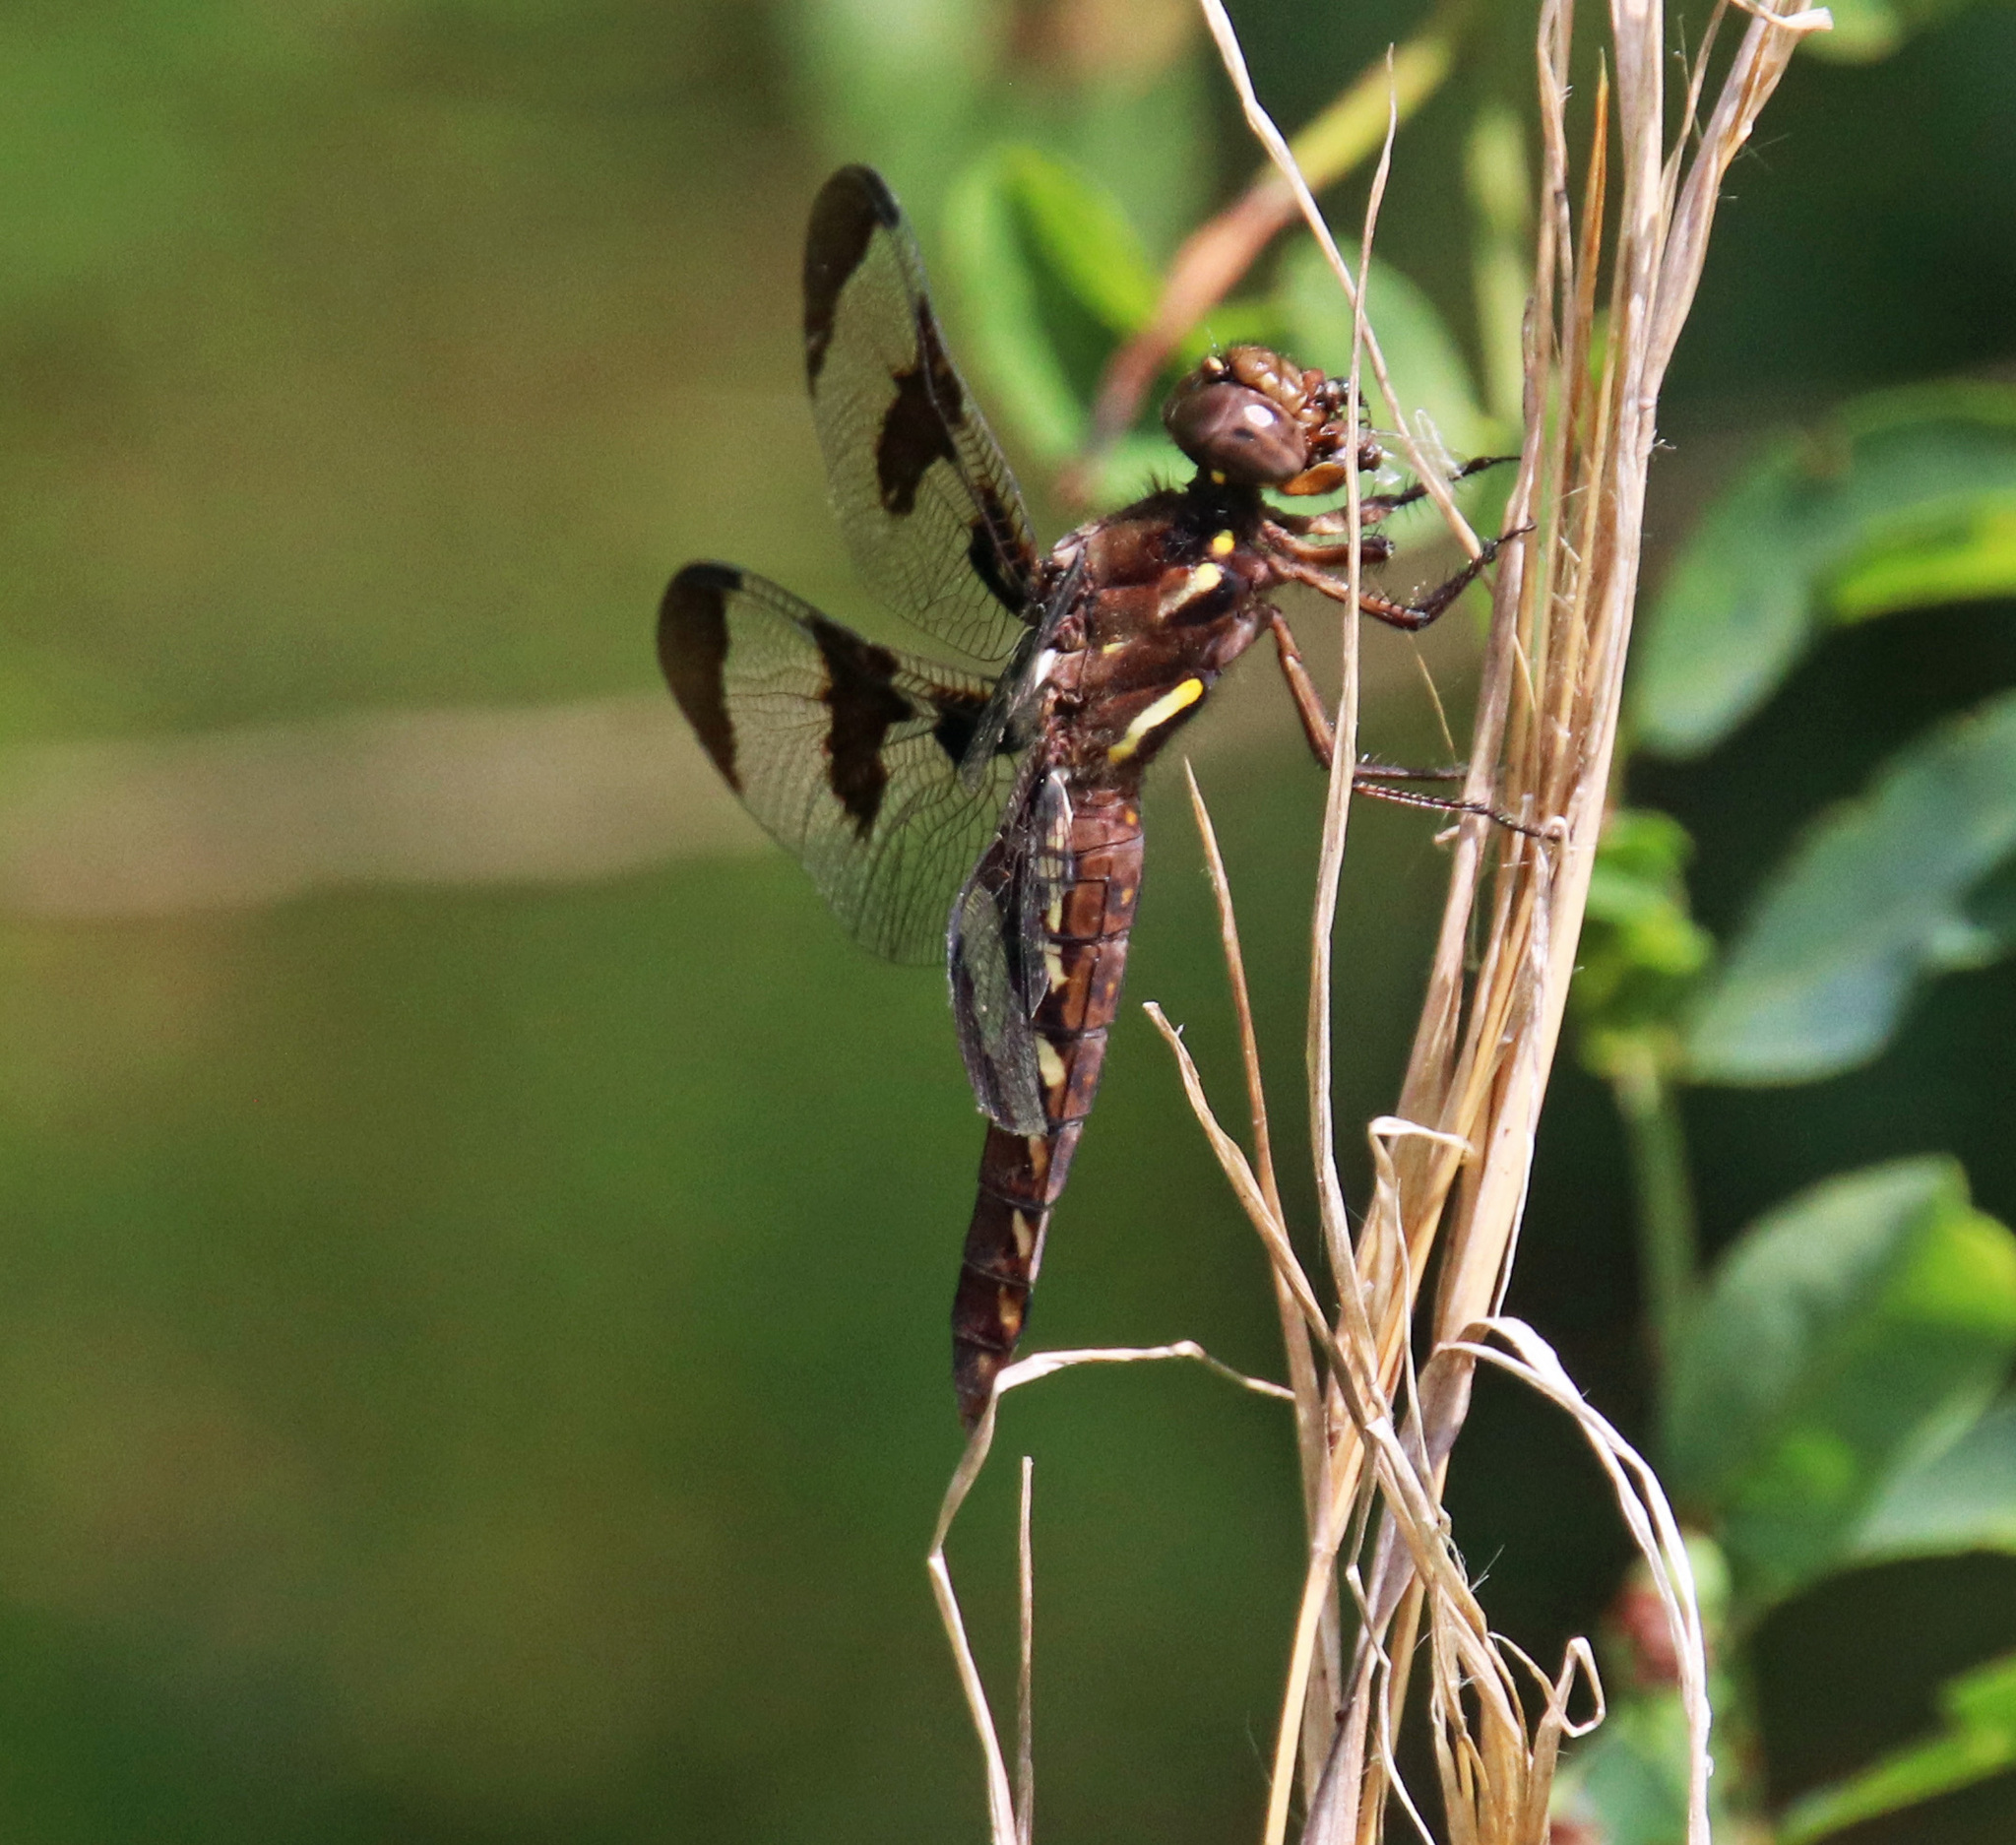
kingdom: Animalia
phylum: Arthropoda
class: Insecta
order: Odonata
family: Libellulidae
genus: Plathemis
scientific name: Plathemis lydia
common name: Common whitetail
